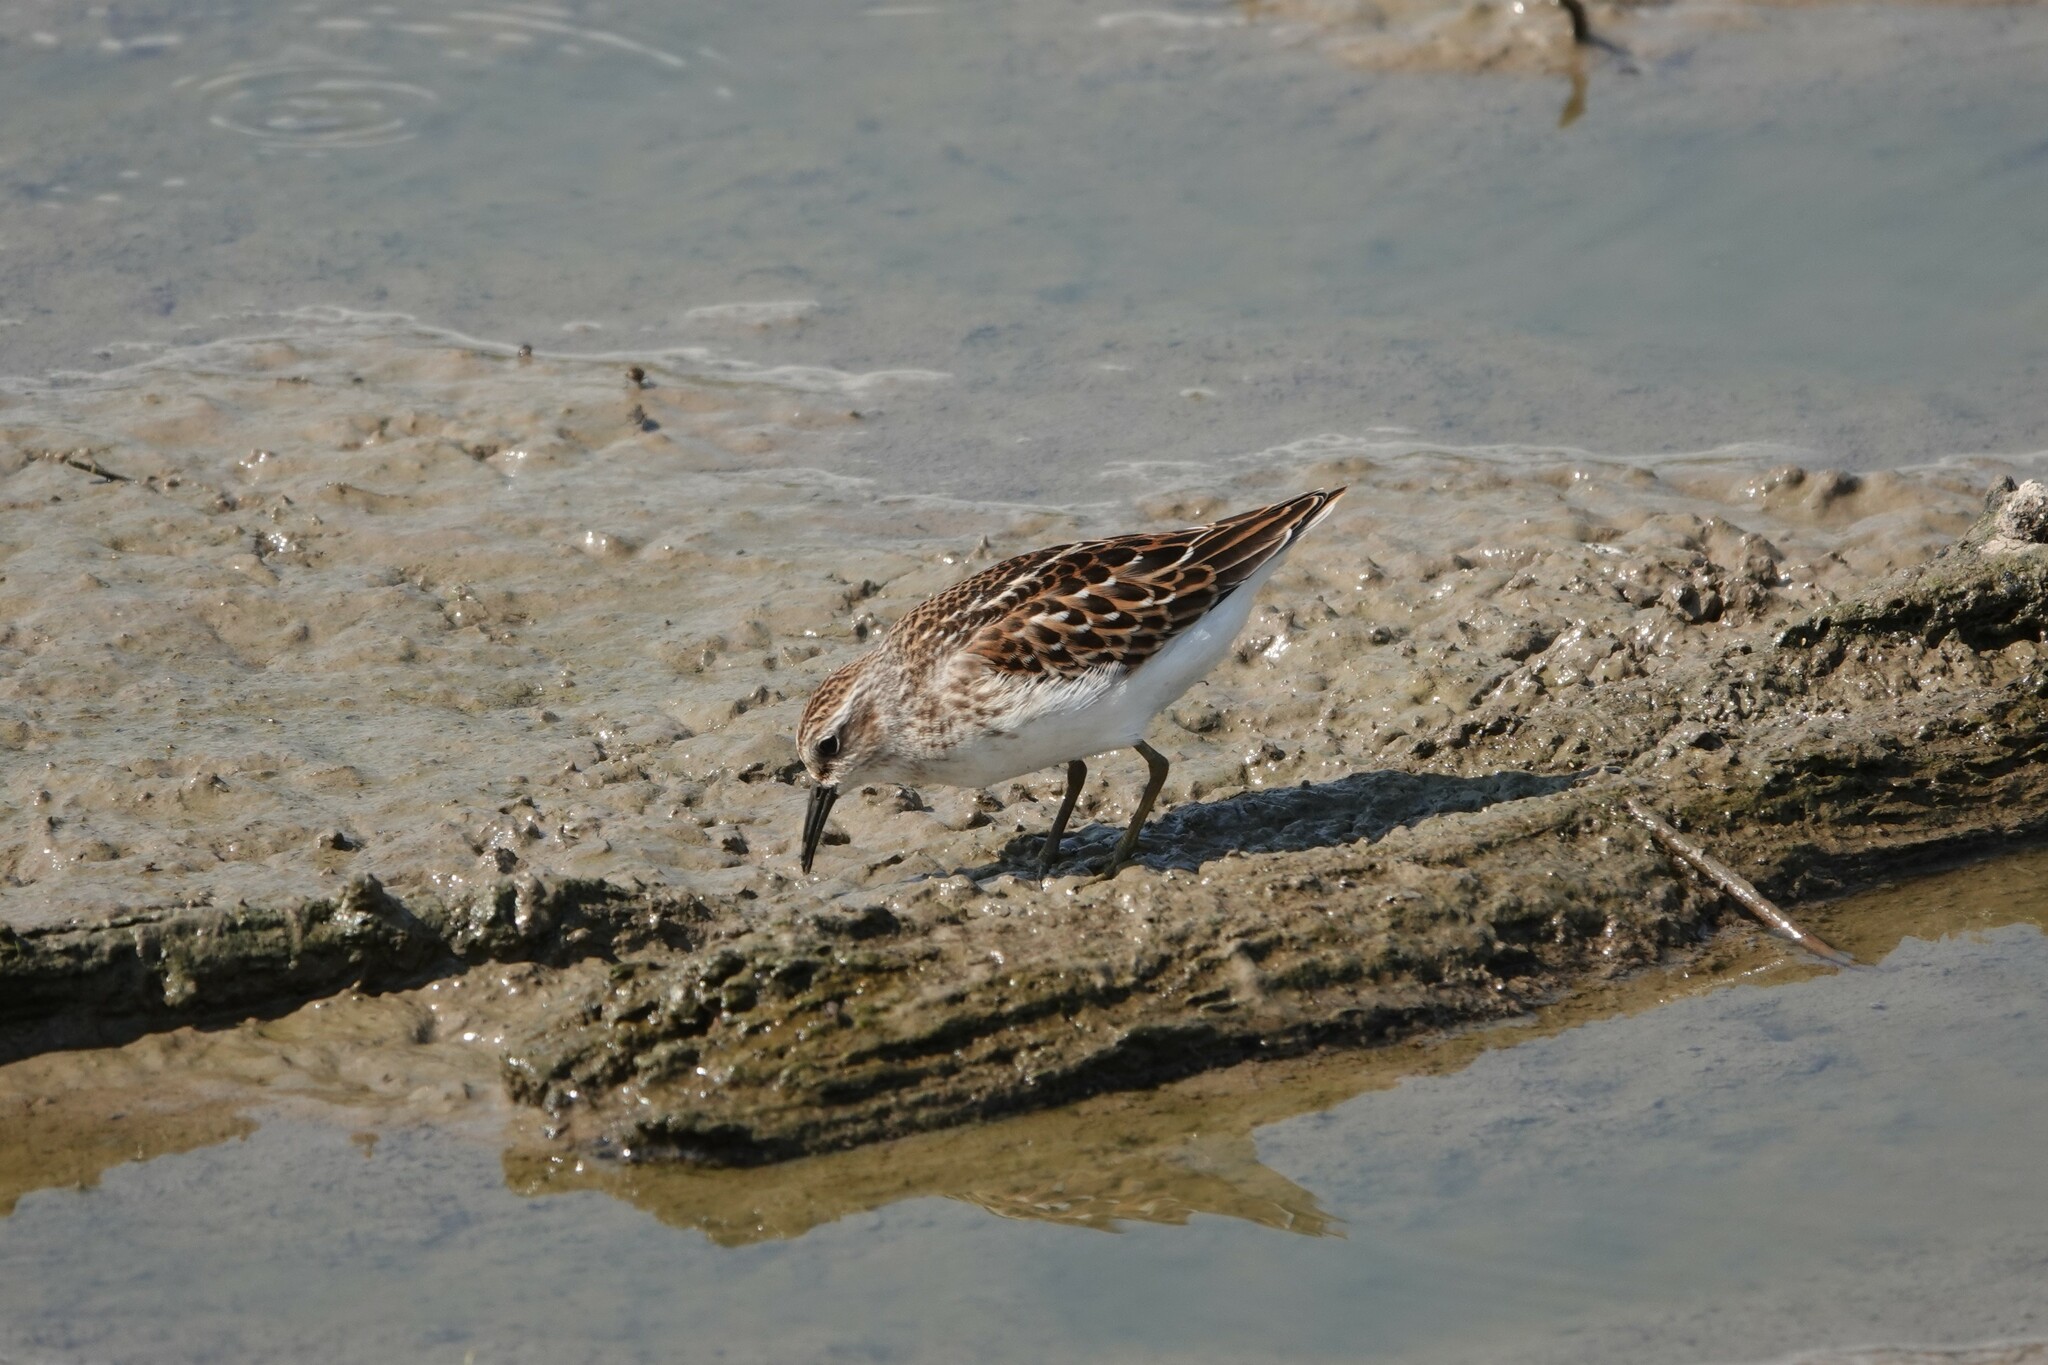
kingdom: Animalia
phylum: Chordata
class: Aves
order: Charadriiformes
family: Scolopacidae
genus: Calidris
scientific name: Calidris minutilla
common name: Least sandpiper
